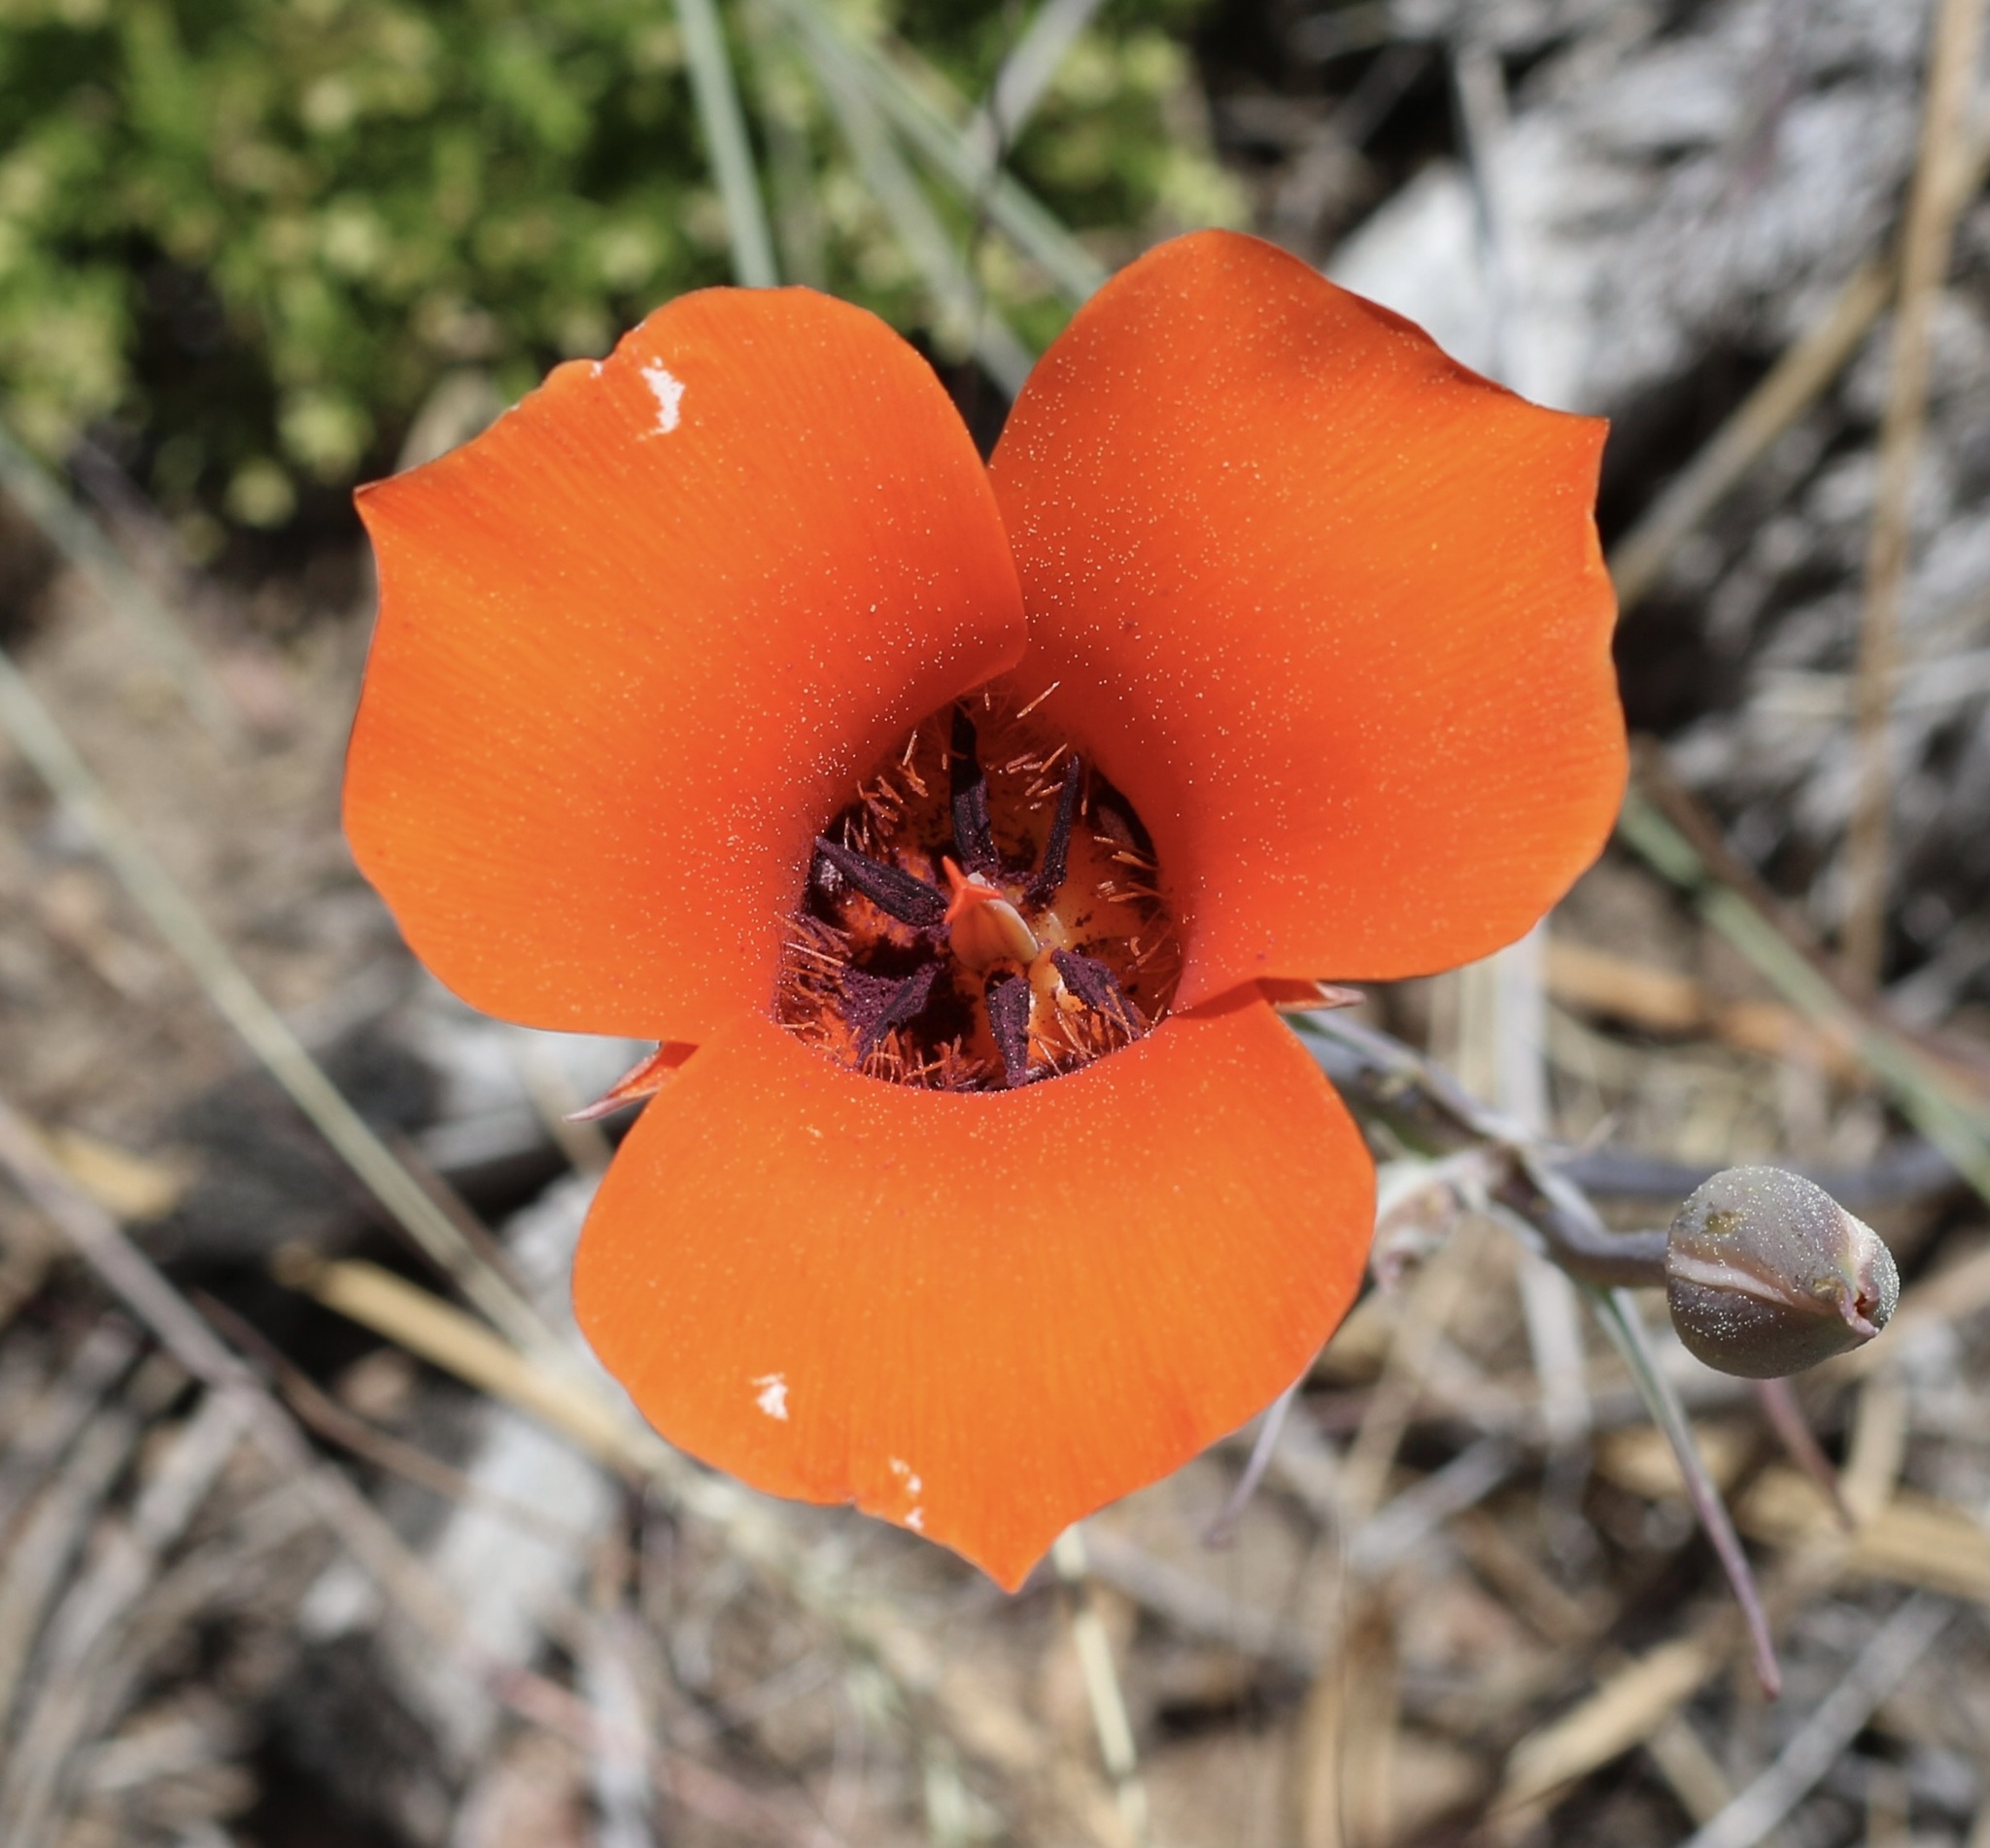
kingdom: Plantae
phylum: Tracheophyta
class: Liliopsida
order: Liliales
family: Liliaceae
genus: Calochortus
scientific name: Calochortus kennedyi
